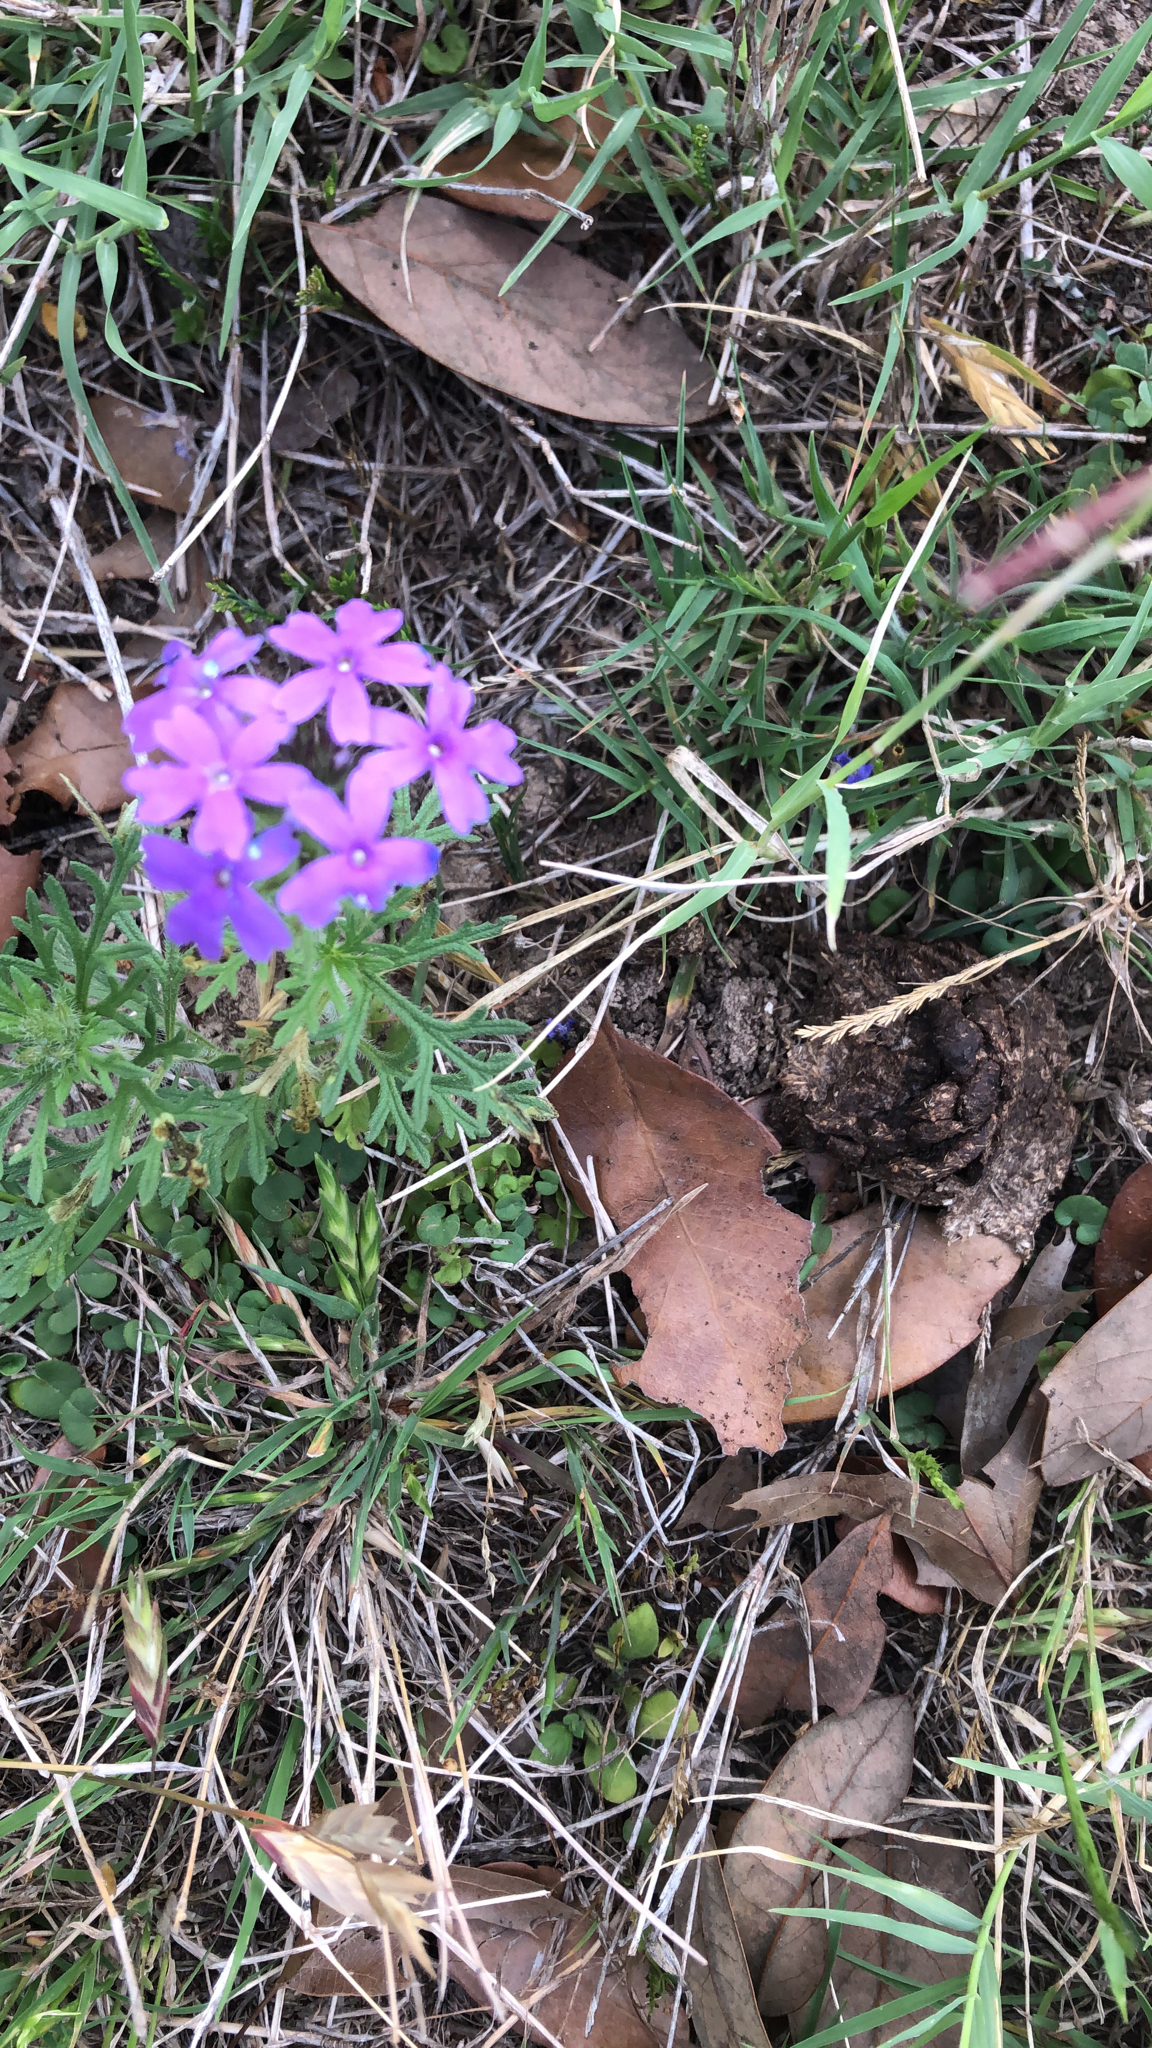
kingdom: Plantae
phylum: Tracheophyta
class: Magnoliopsida
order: Lamiales
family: Verbenaceae
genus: Verbena
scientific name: Verbena bipinnatifida
